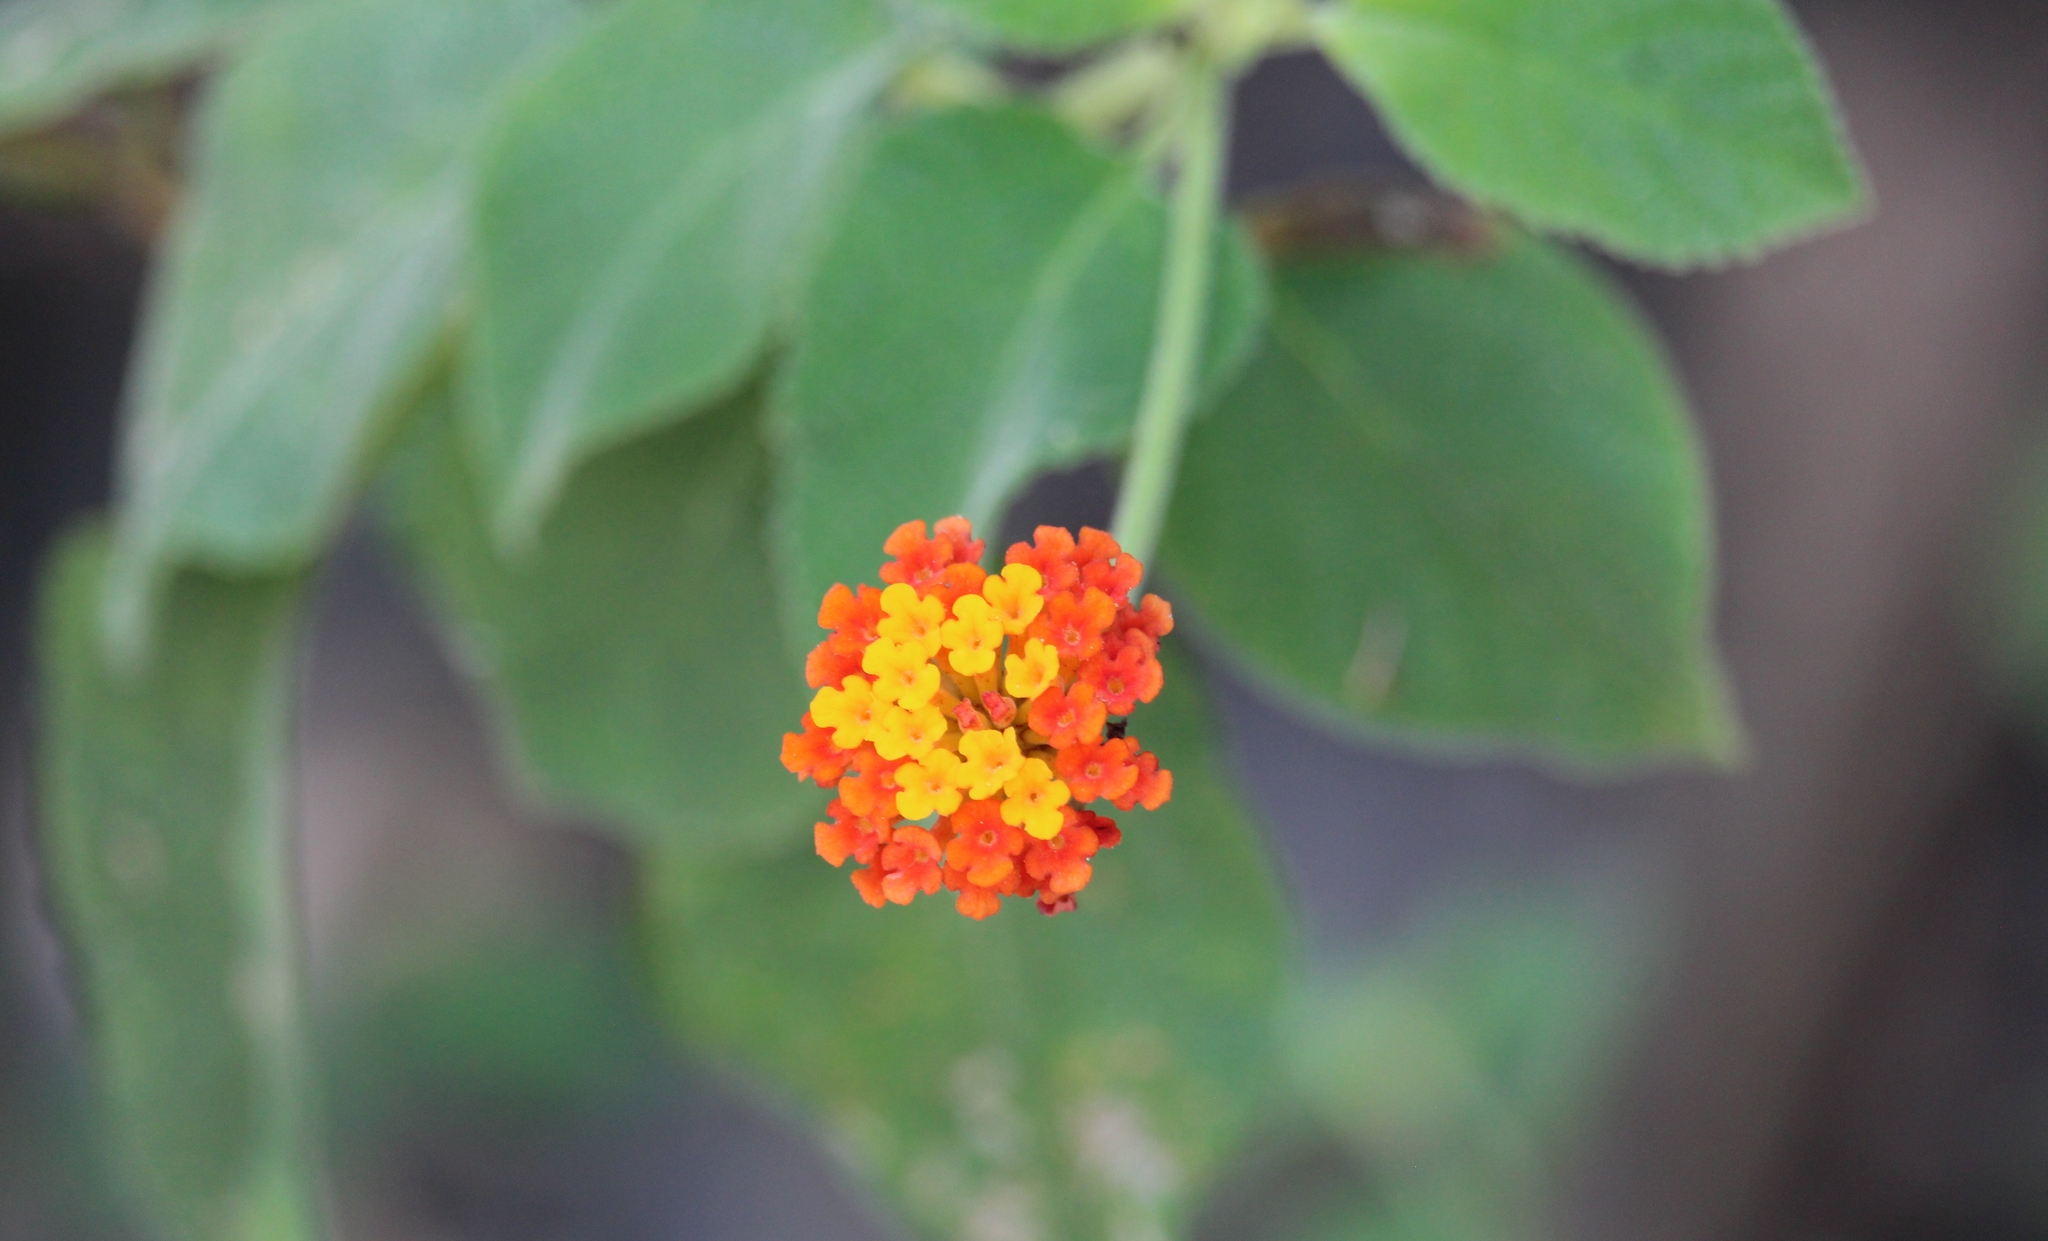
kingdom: Plantae
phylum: Tracheophyta
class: Magnoliopsida
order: Lamiales
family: Verbenaceae
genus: Lantana
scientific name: Lantana camara
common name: Lantana
